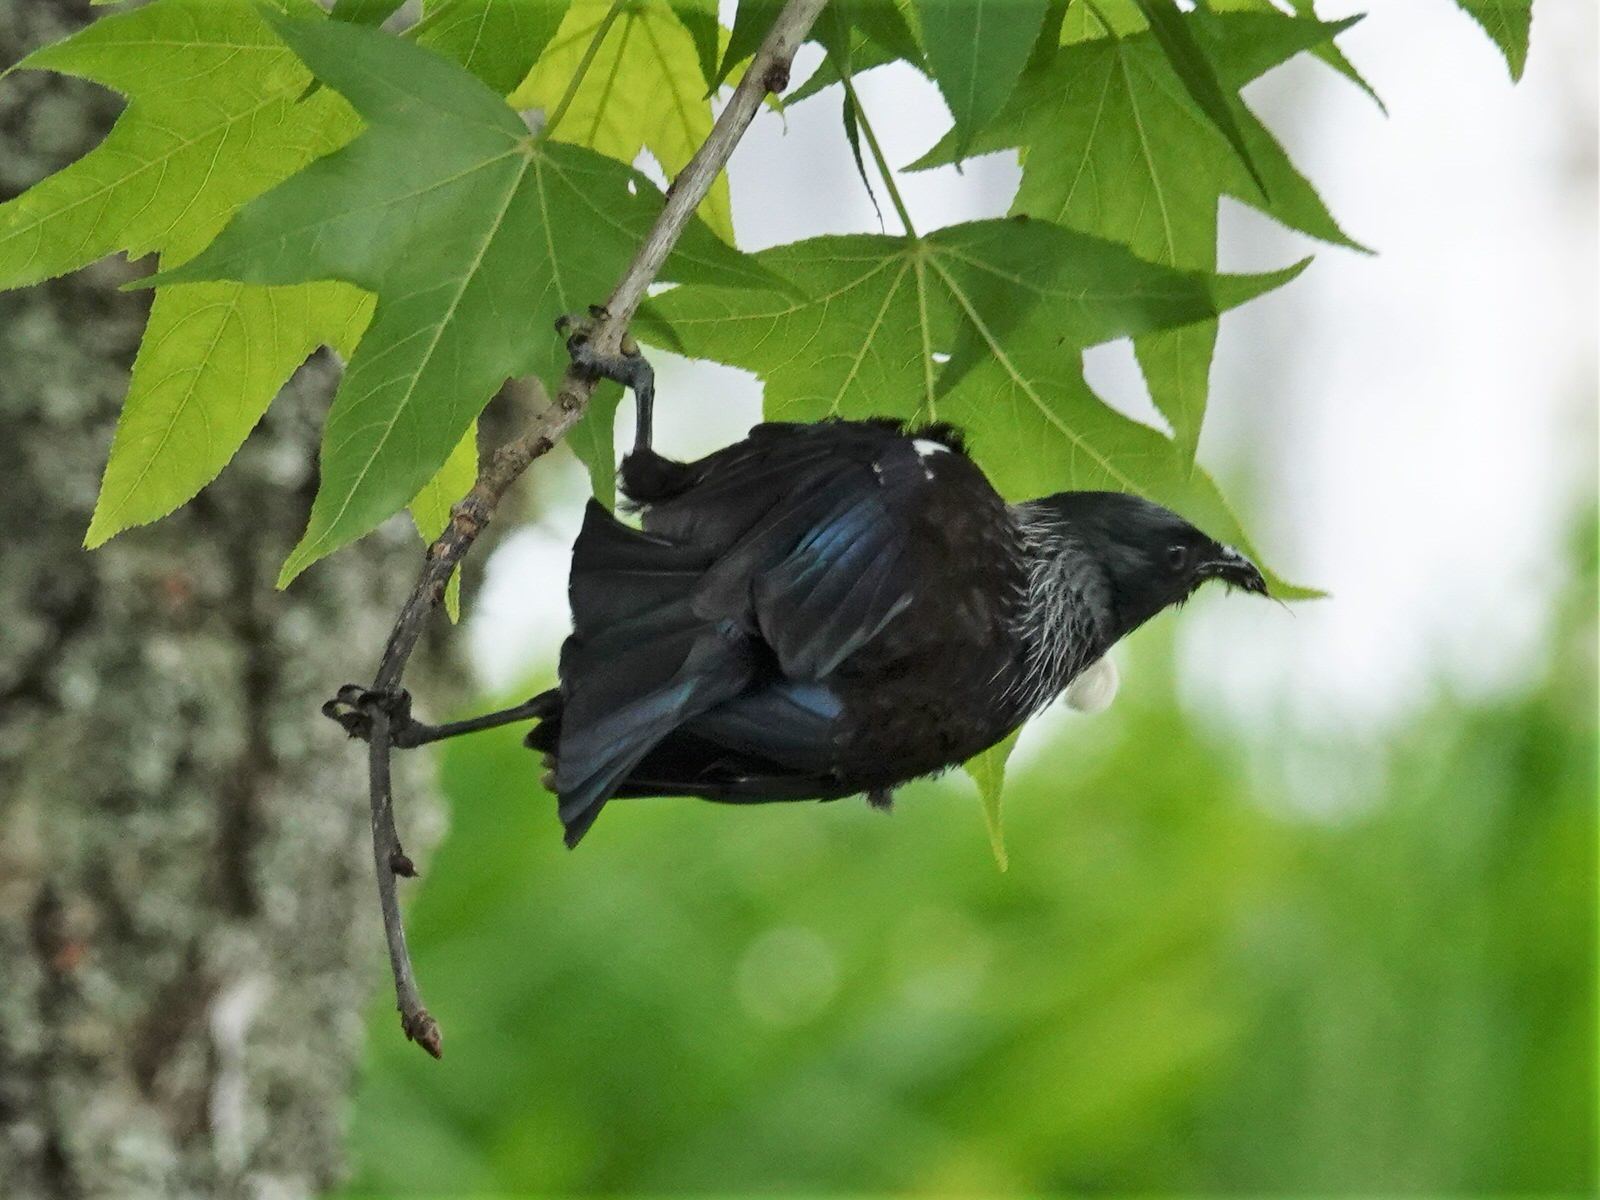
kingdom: Animalia
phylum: Chordata
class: Aves
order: Passeriformes
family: Meliphagidae
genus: Prosthemadera
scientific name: Prosthemadera novaeseelandiae
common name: Tui
